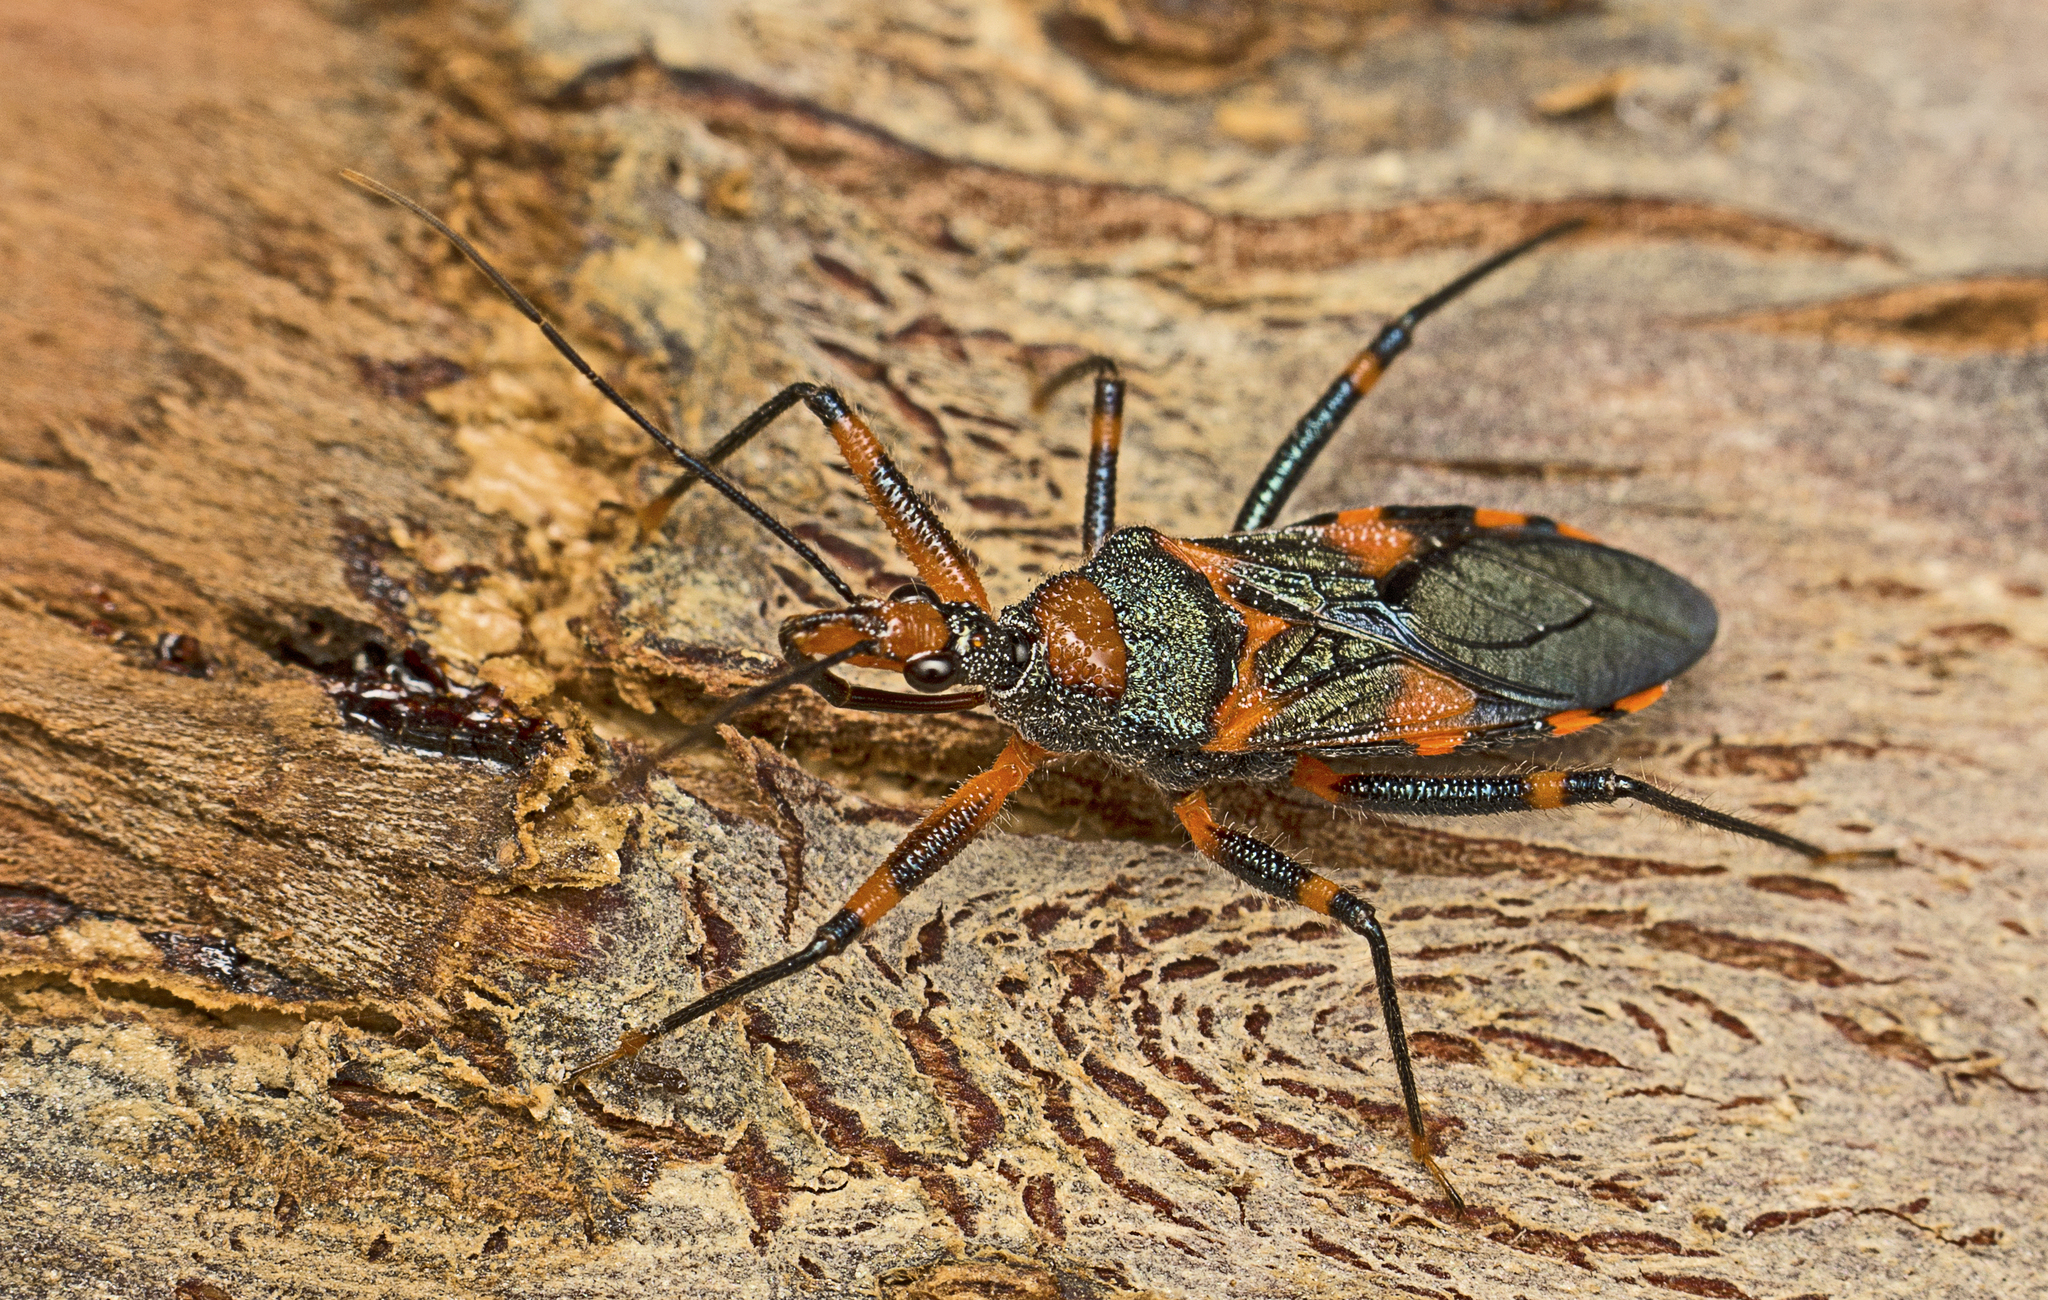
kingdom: Animalia
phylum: Arthropoda
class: Insecta
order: Hemiptera
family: Reduviidae
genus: Havinthus
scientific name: Havinthus rufovarius
